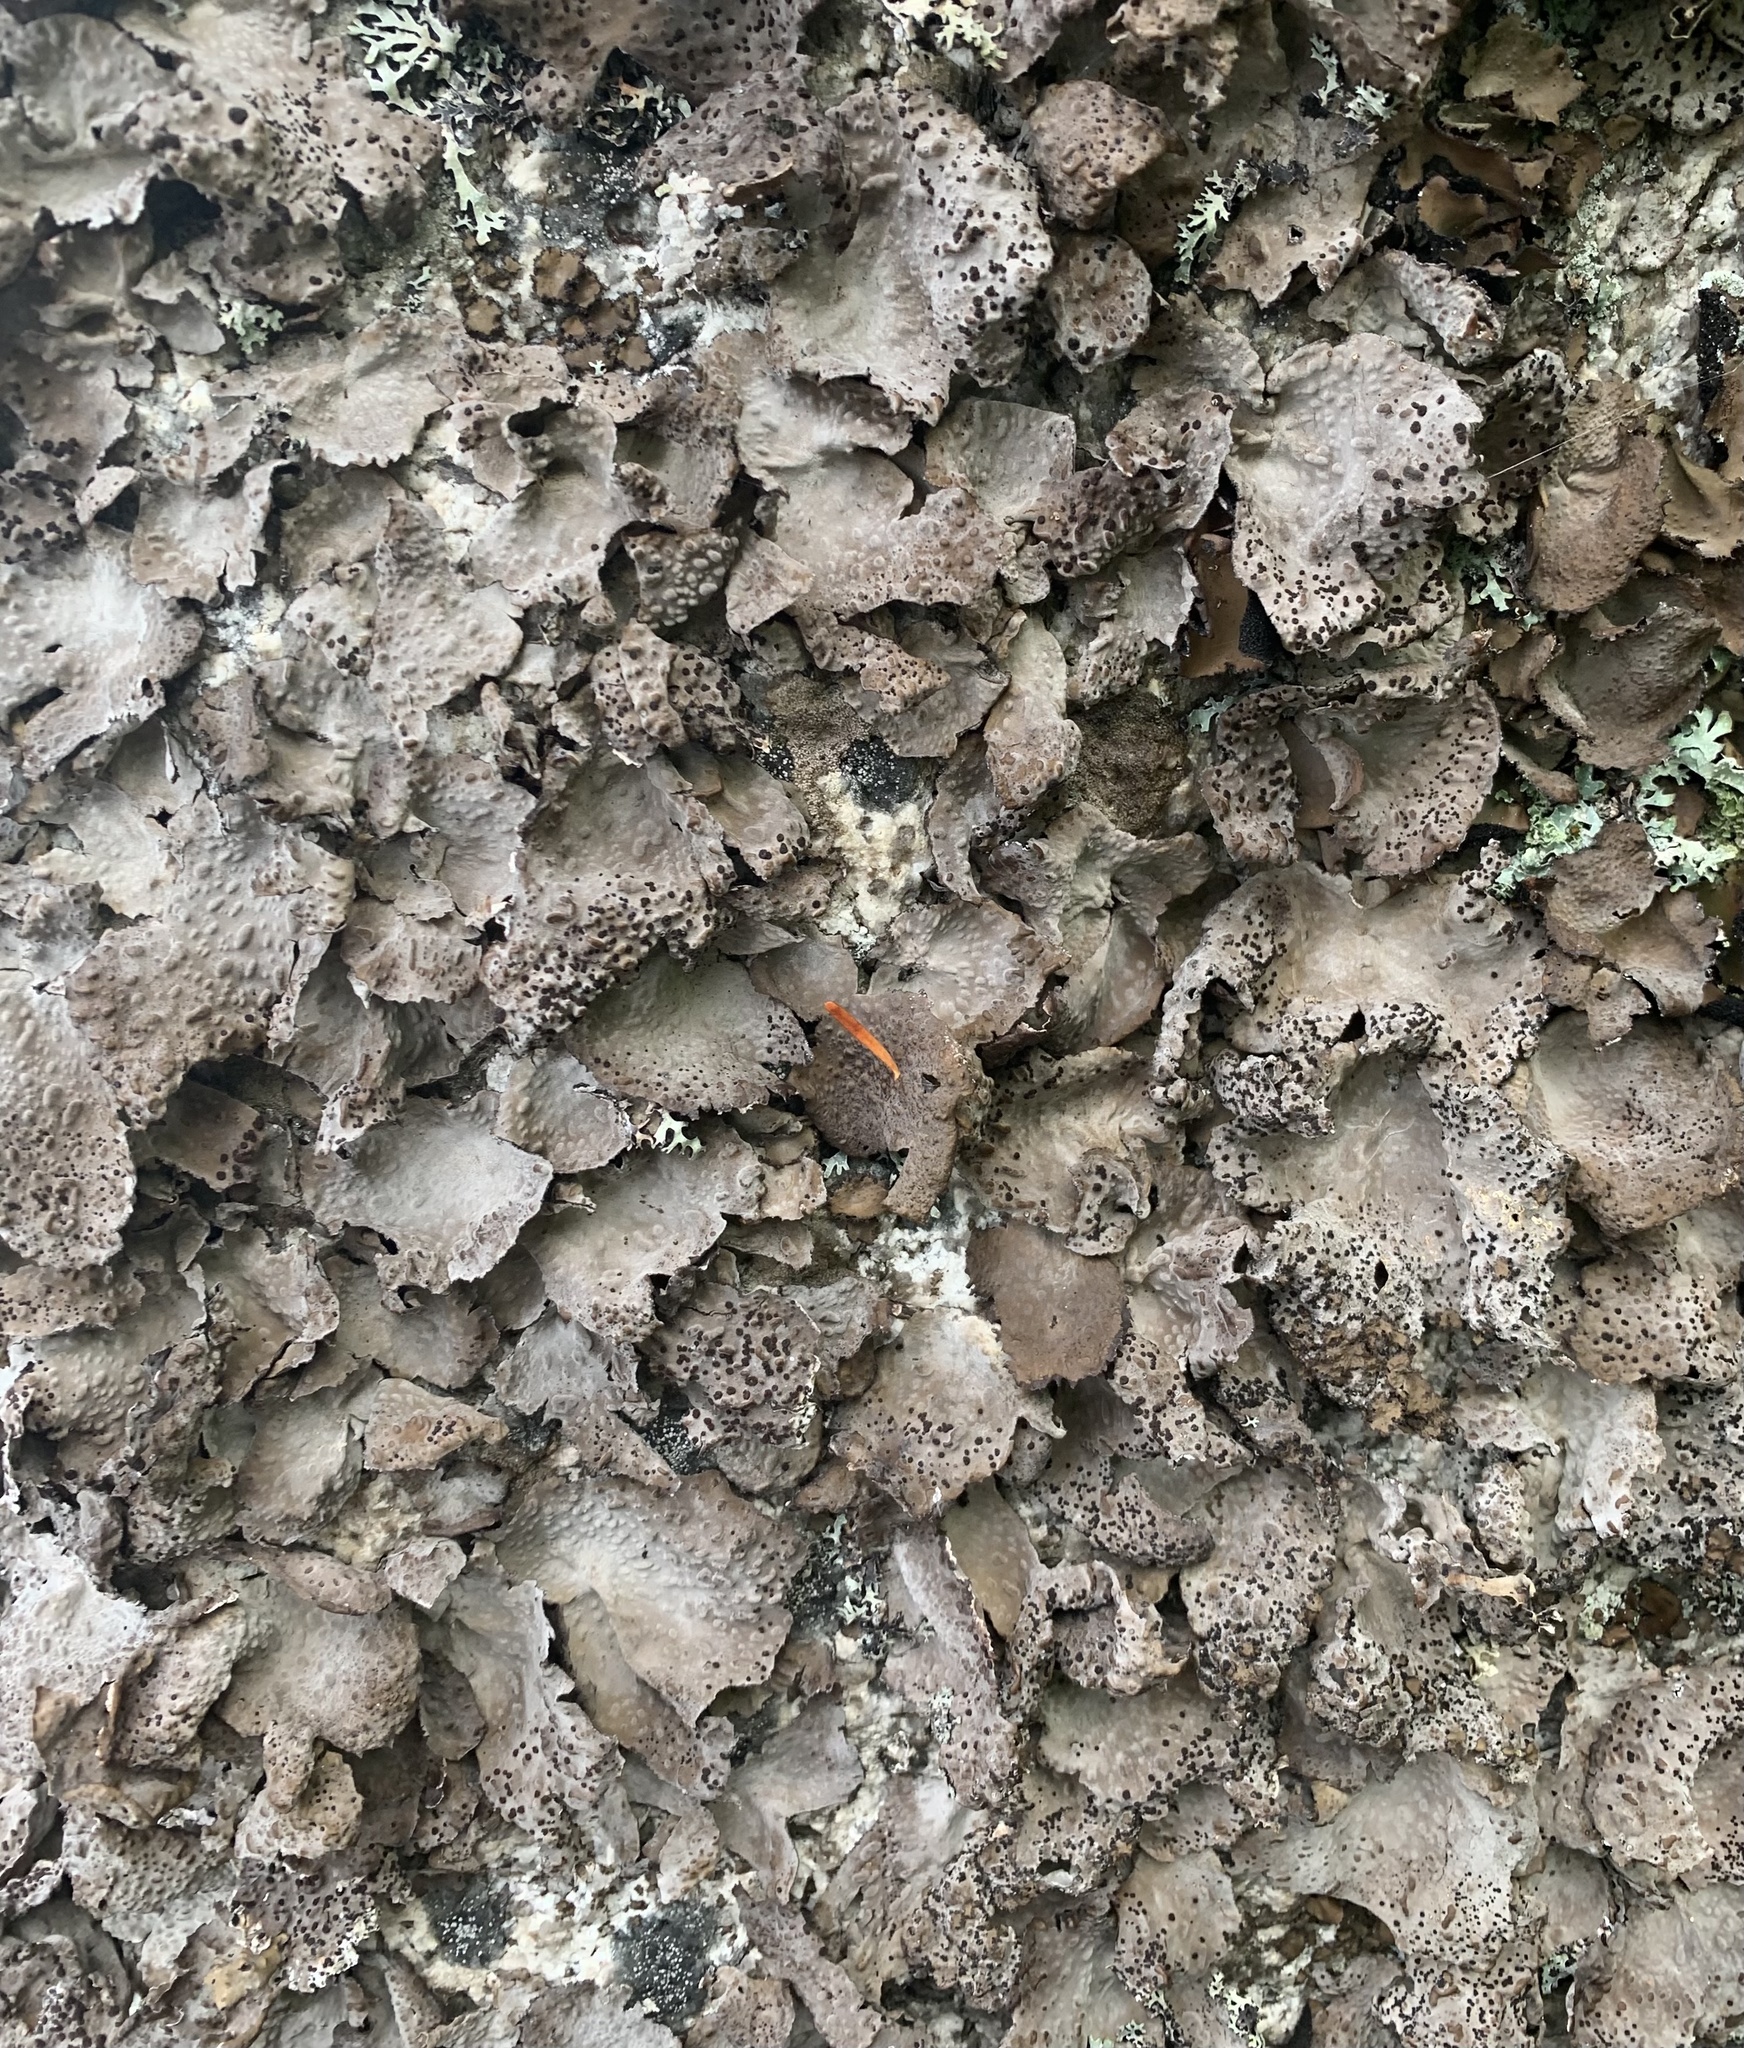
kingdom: Fungi
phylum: Ascomycota
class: Lecanoromycetes
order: Umbilicariales
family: Umbilicariaceae
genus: Lasallia
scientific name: Lasallia papulosa
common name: Common toadskin lichen
